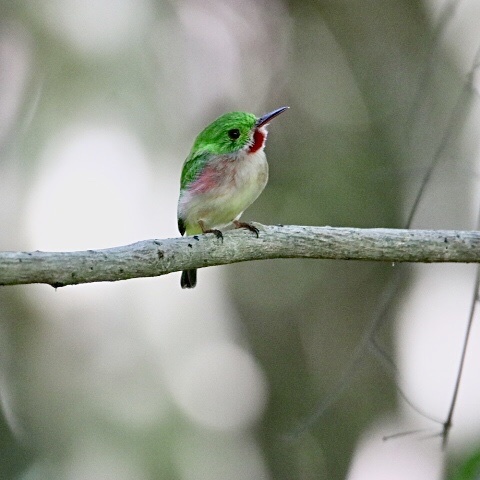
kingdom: Animalia
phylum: Chordata
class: Aves
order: Coraciiformes
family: Todidae
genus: Todus
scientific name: Todus subulatus
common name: Broad-billed tody
